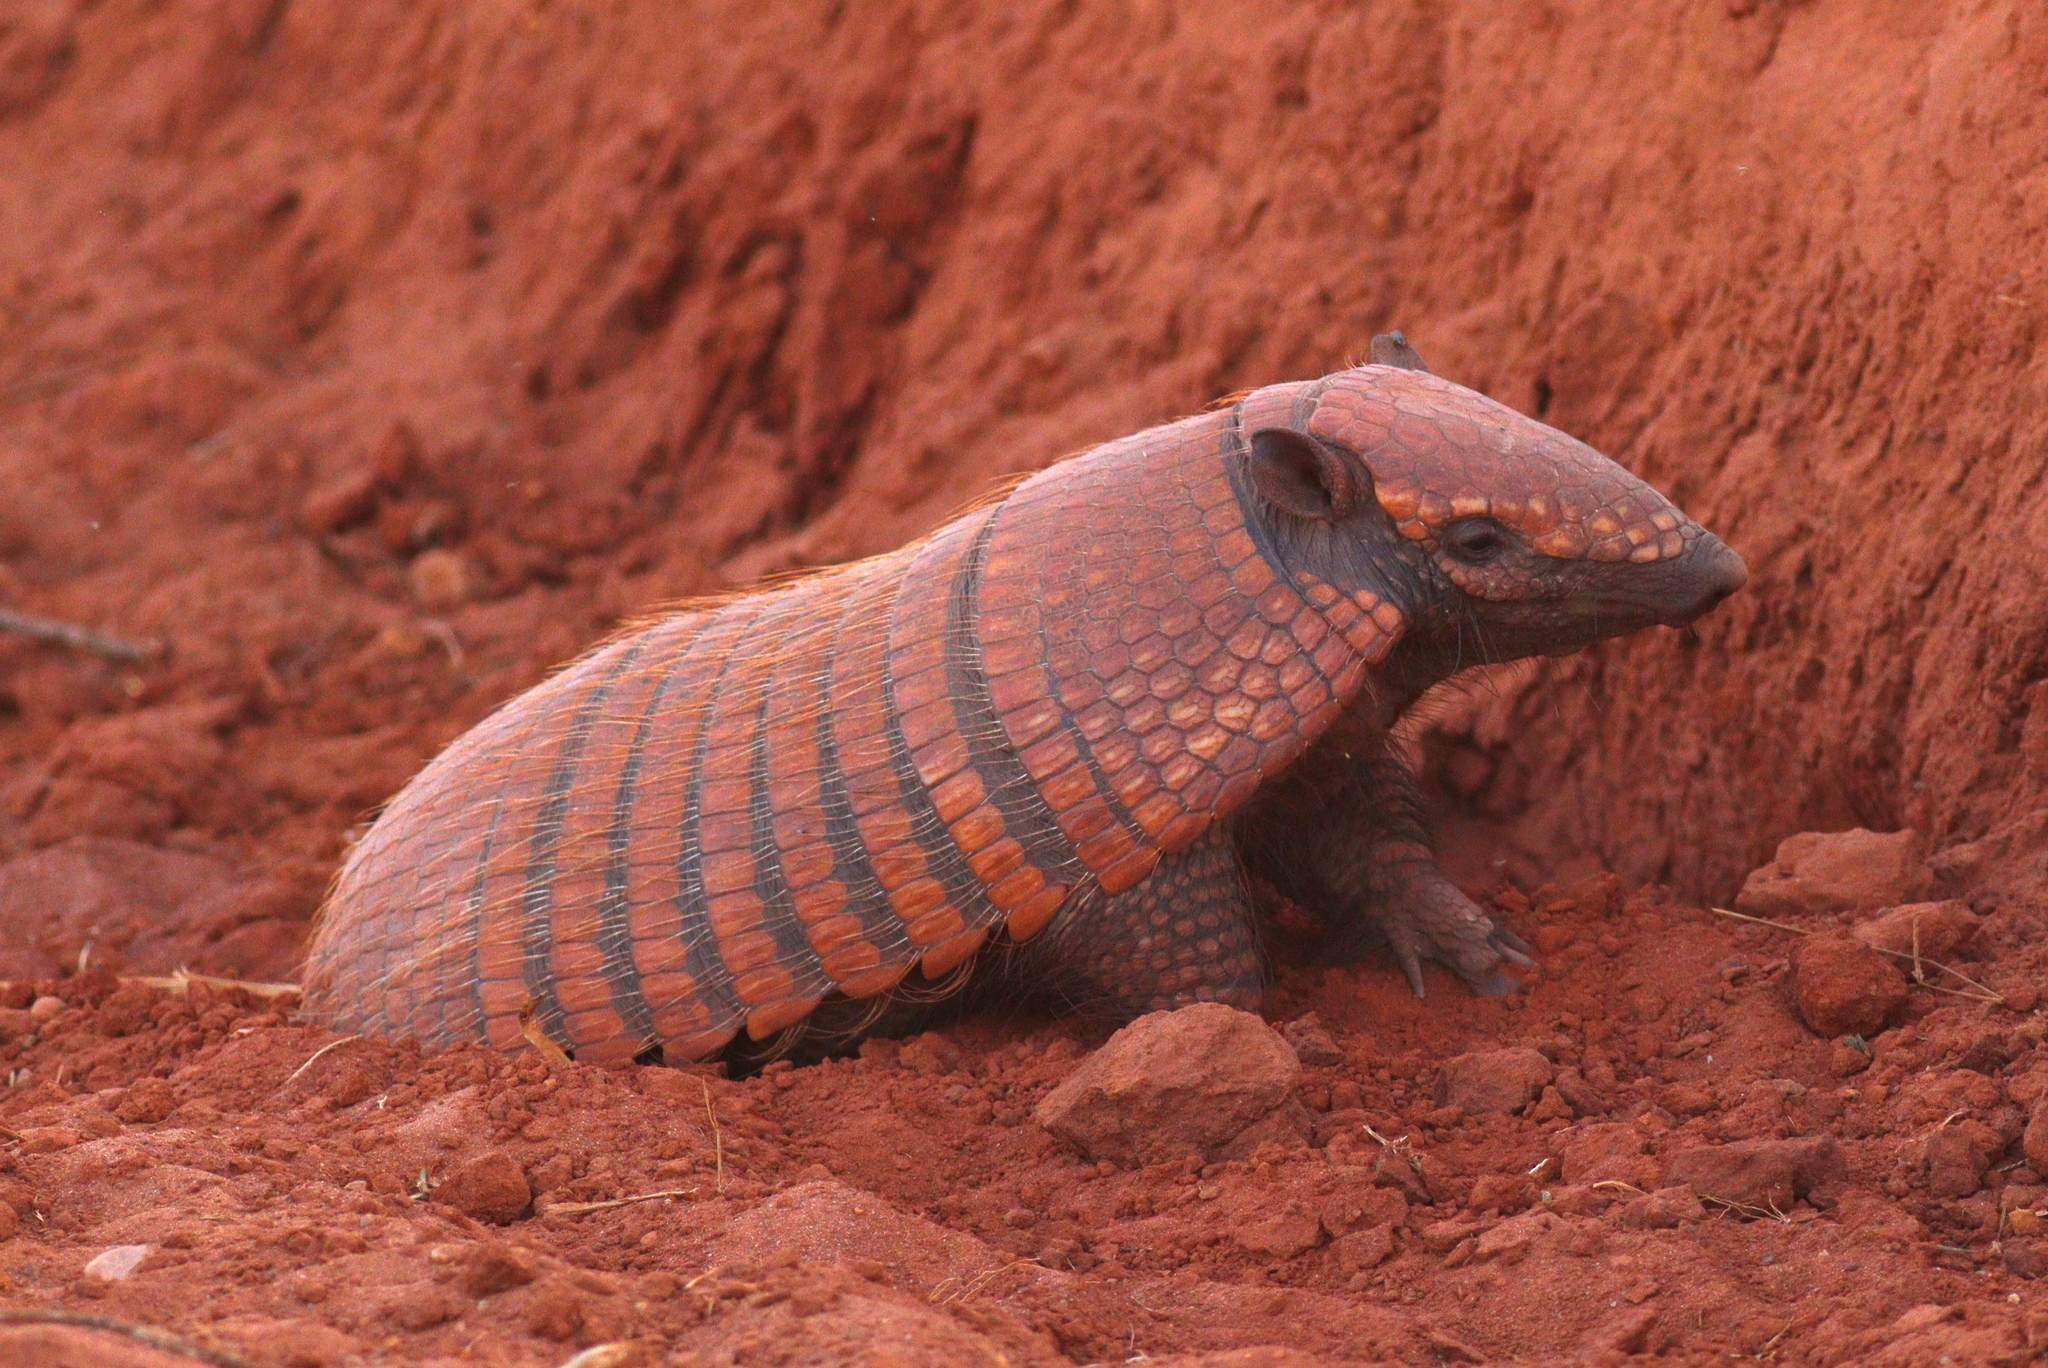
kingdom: Animalia
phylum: Chordata
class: Mammalia
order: Cingulata
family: Dasypodidae
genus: Euphractus
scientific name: Euphractus sexcinctus
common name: Six-banded armadillo
